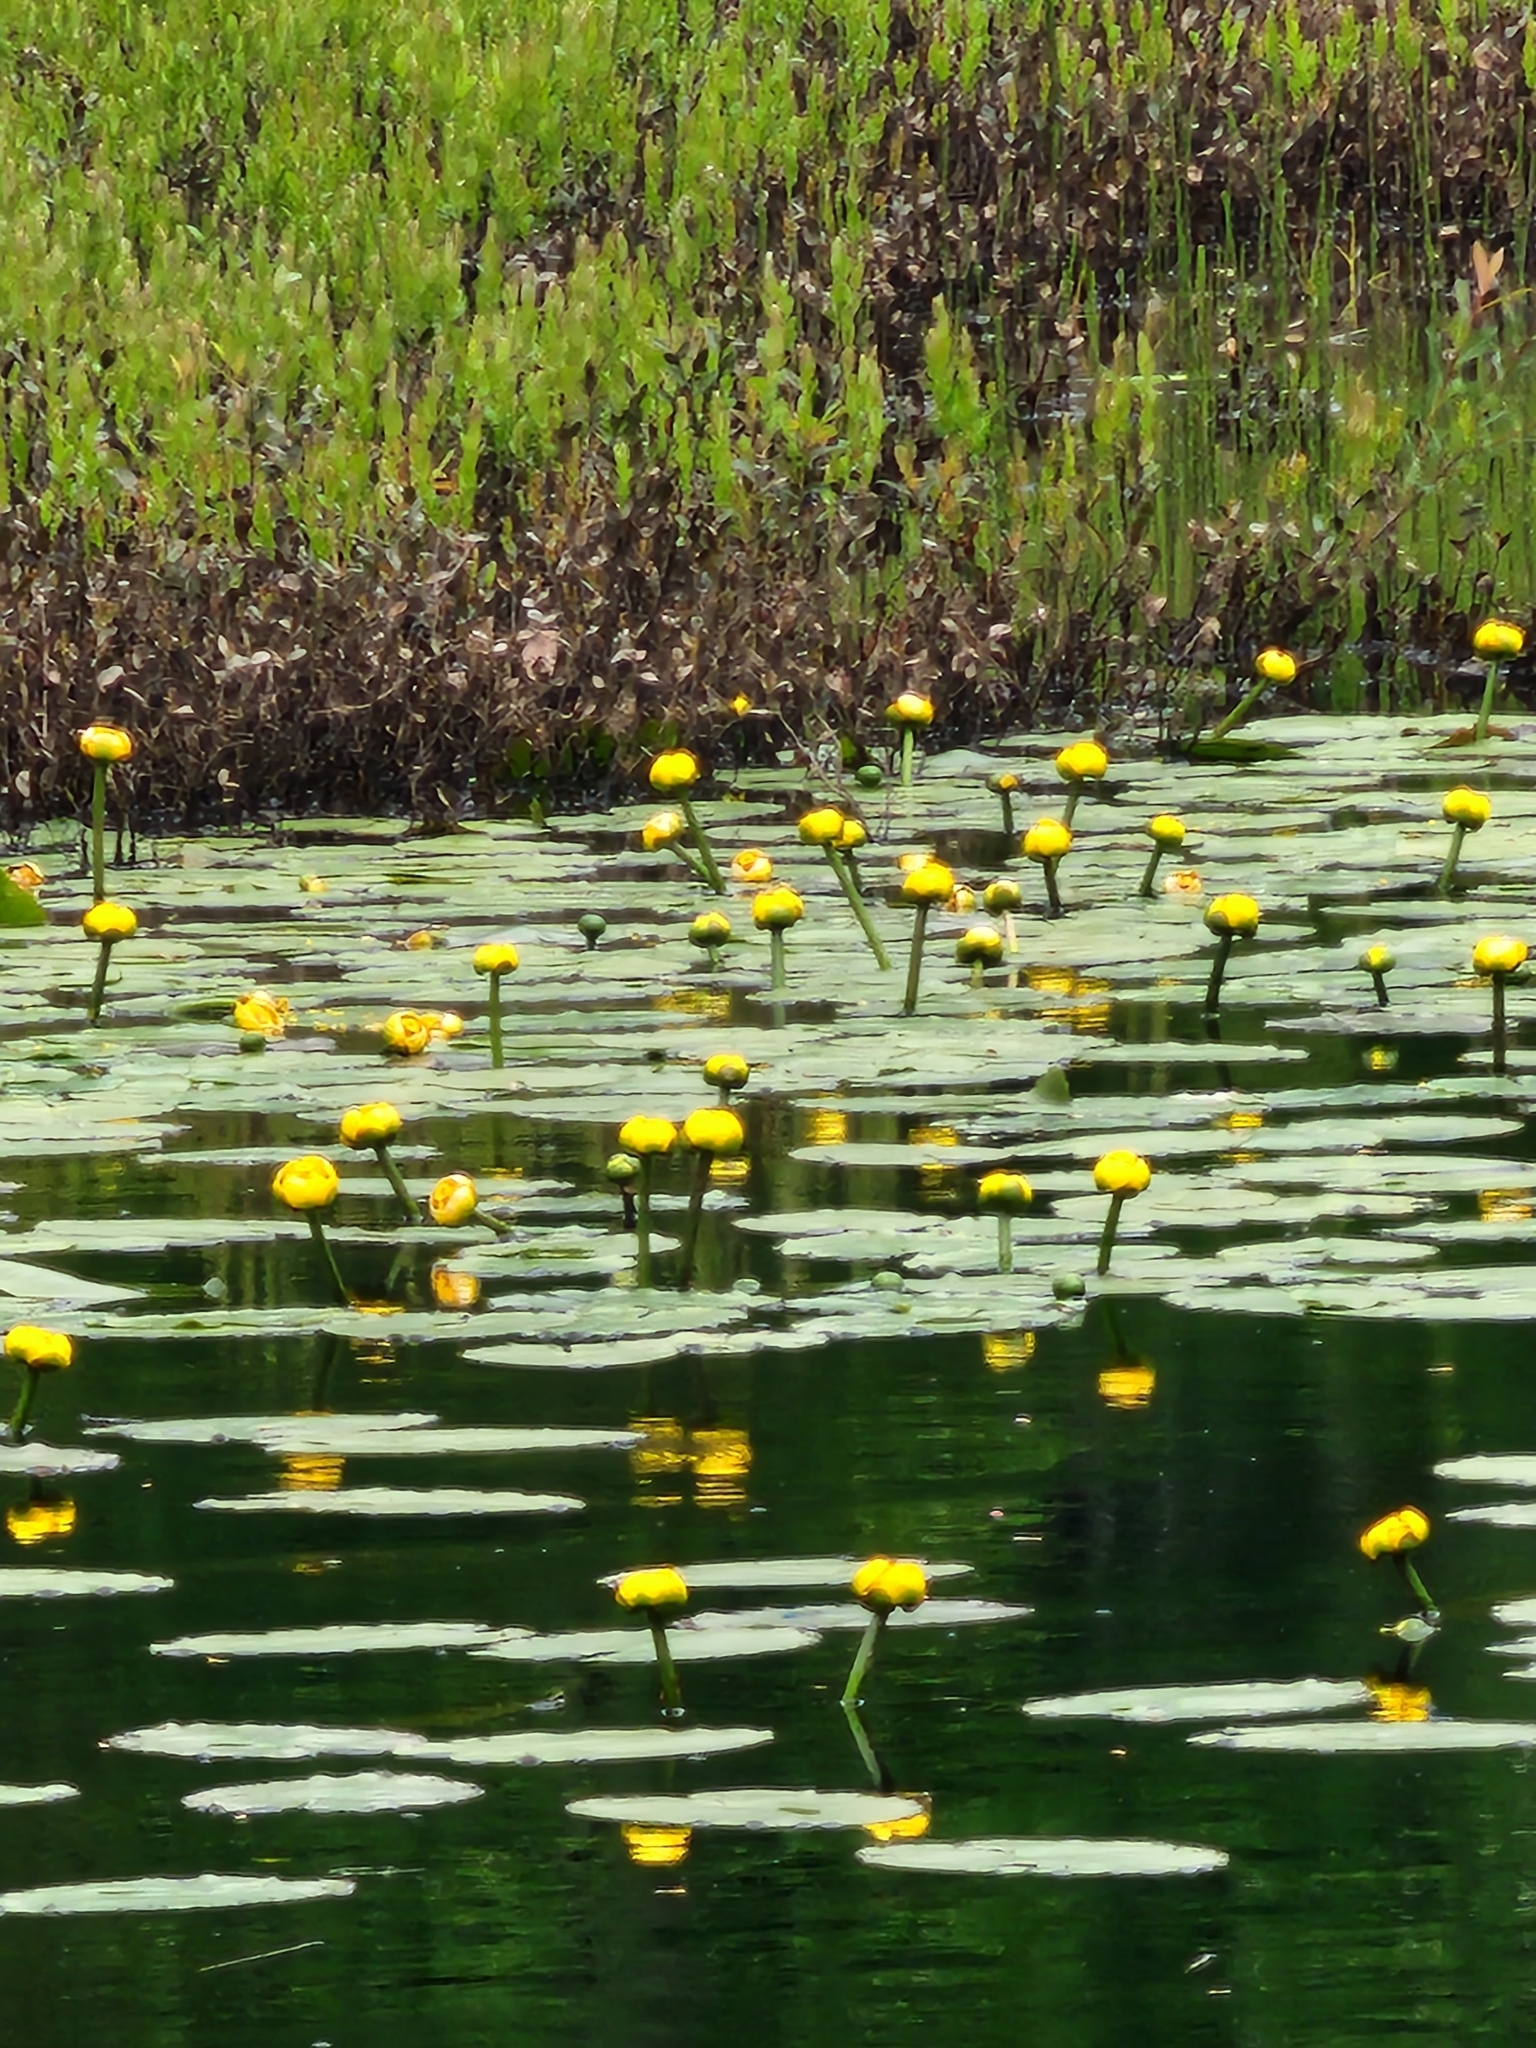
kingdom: Plantae
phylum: Tracheophyta
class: Magnoliopsida
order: Nymphaeales
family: Nymphaeaceae
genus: Nuphar
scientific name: Nuphar variegata
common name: Beaver-root
